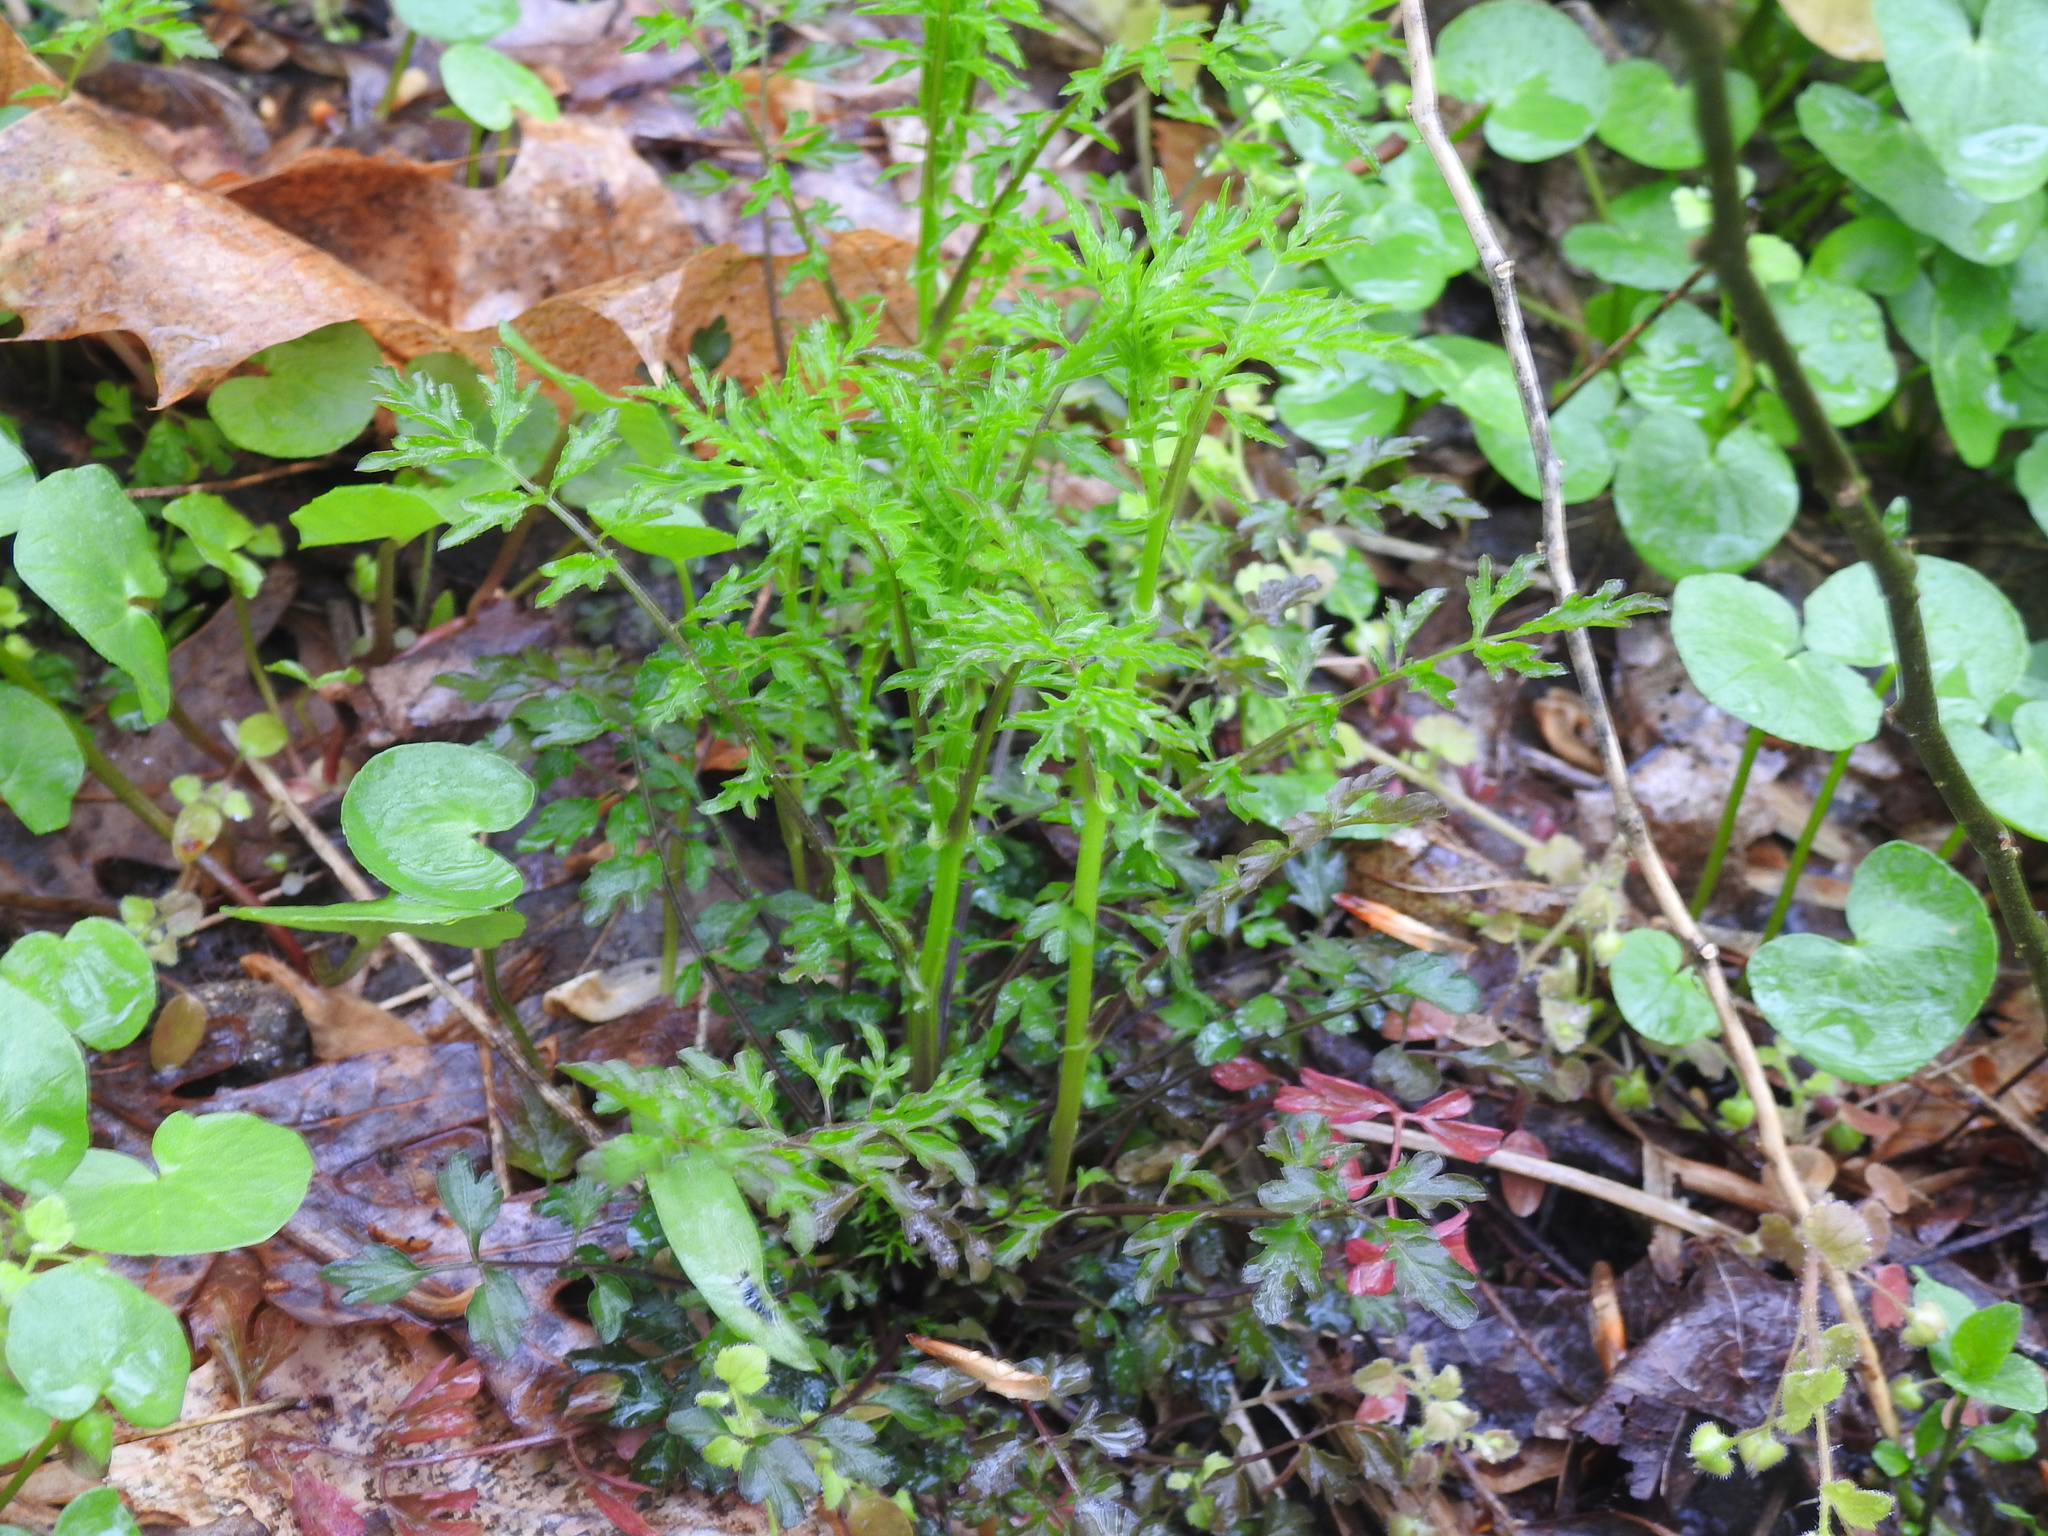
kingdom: Plantae
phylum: Tracheophyta
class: Magnoliopsida
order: Brassicales
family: Brassicaceae
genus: Cardamine
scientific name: Cardamine impatiens
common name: Narrow-leaved bitter-cress
